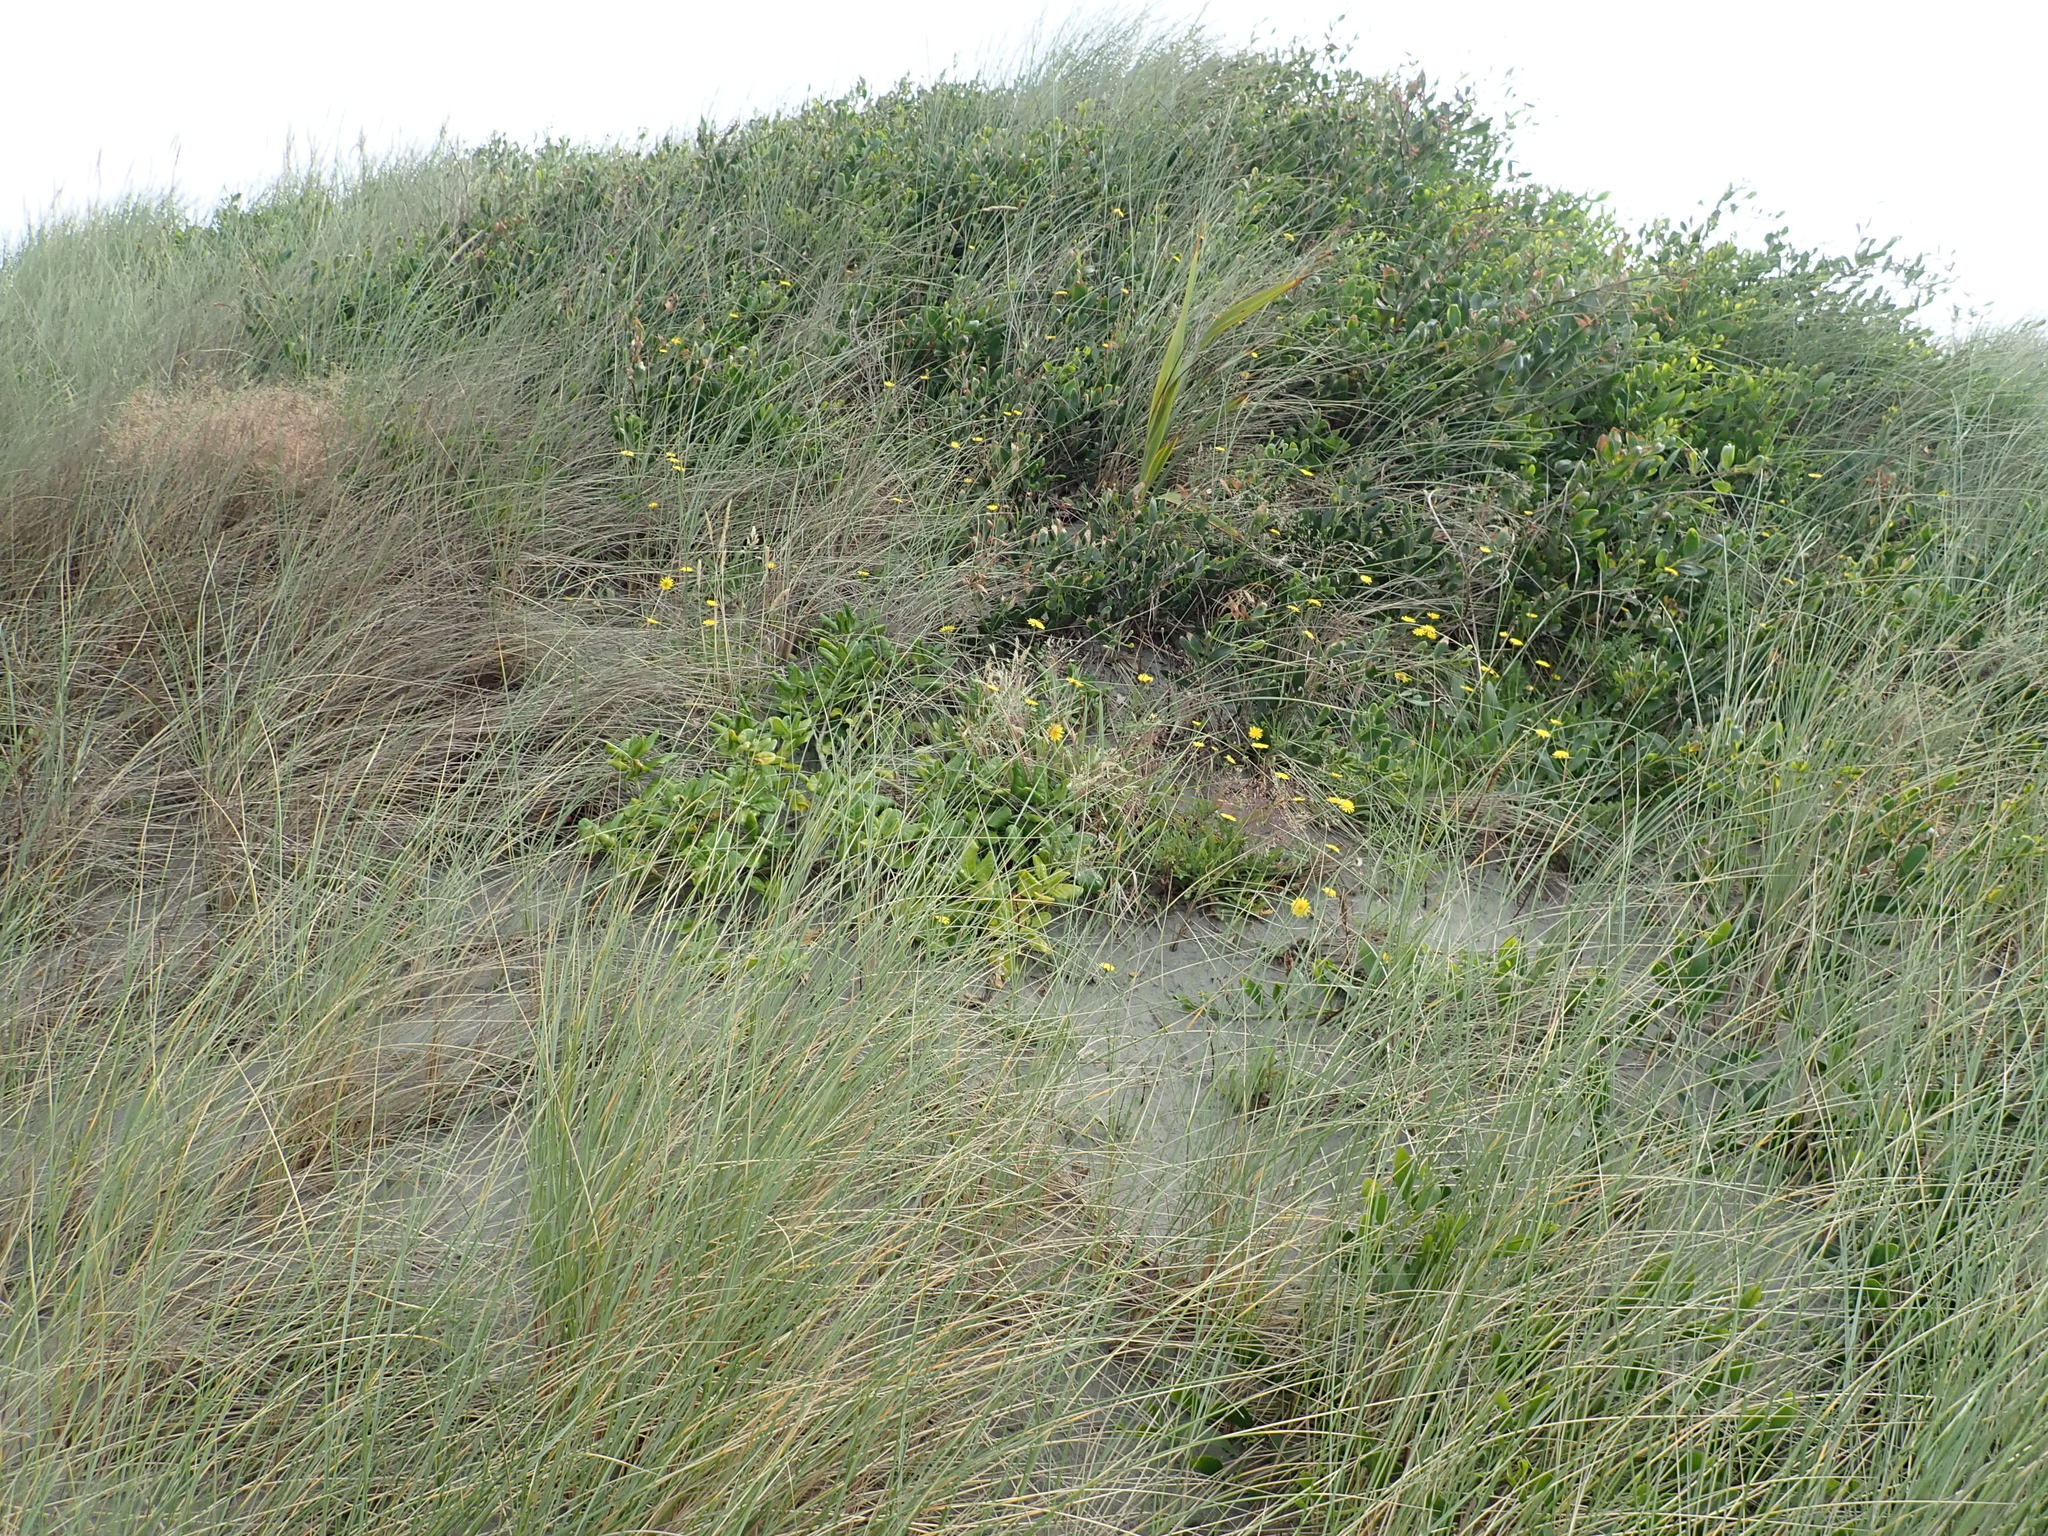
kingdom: Plantae
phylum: Tracheophyta
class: Liliopsida
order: Asparagales
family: Asphodelaceae
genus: Phormium
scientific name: Phormium tenax
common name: New zealand flax
